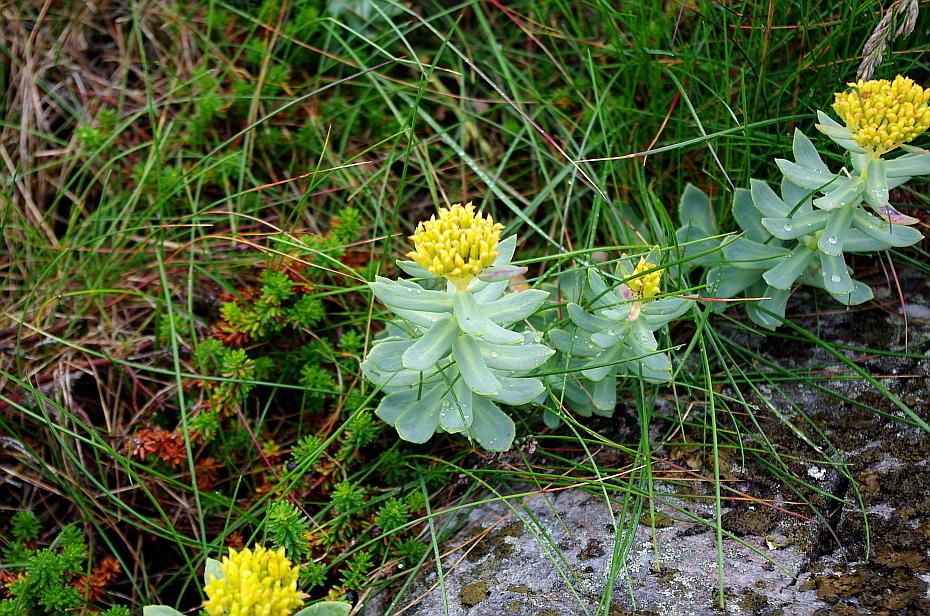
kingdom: Plantae
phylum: Tracheophyta
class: Magnoliopsida
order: Saxifragales
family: Crassulaceae
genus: Rhodiola
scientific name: Rhodiola rosea
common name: Roseroot
